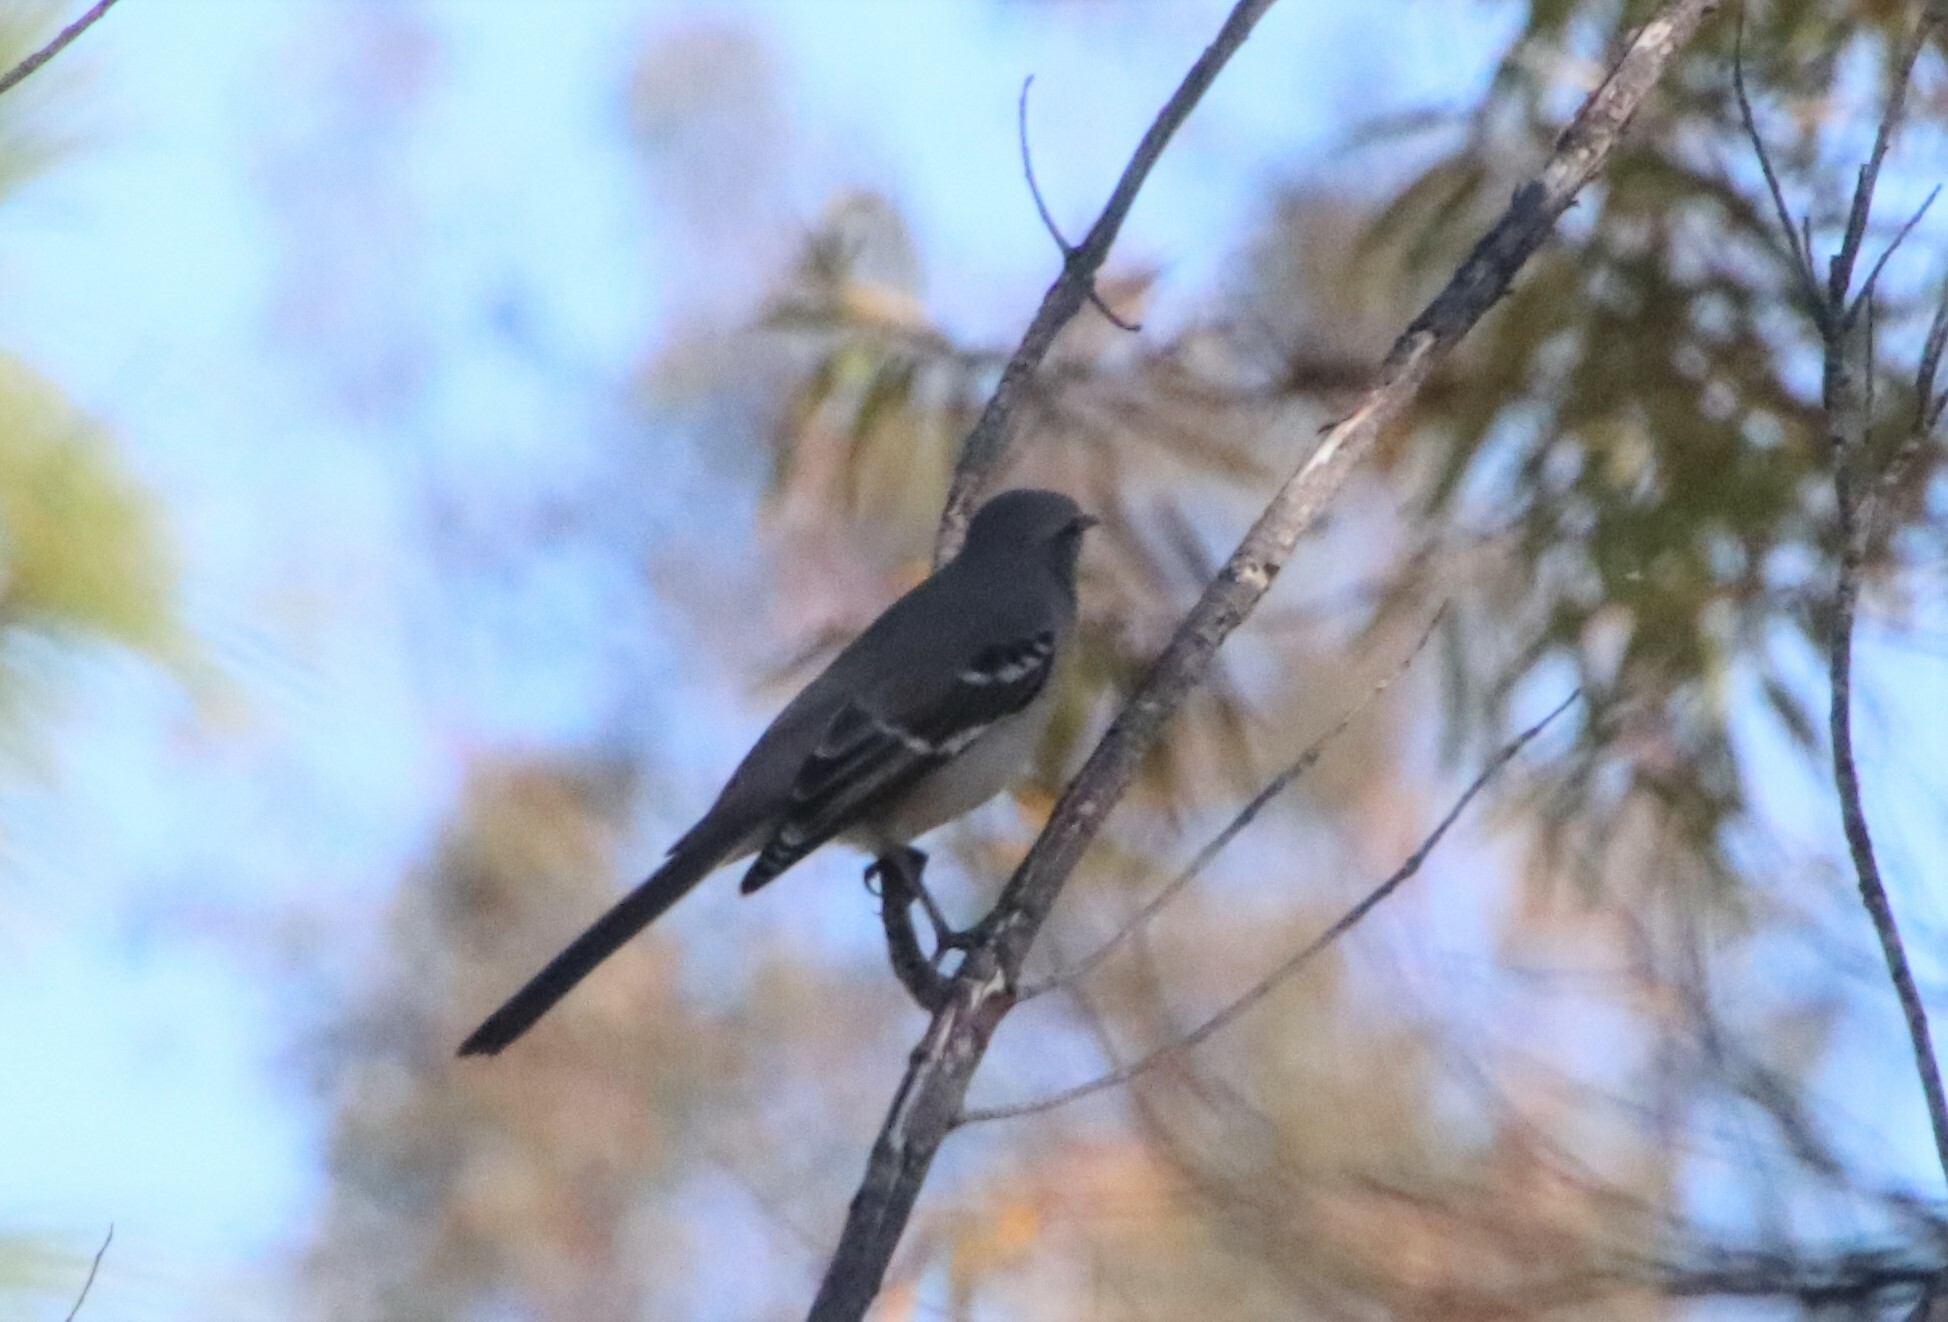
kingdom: Animalia
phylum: Chordata
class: Aves
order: Passeriformes
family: Mimidae
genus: Mimus
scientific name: Mimus polyglottos
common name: Northern mockingbird
